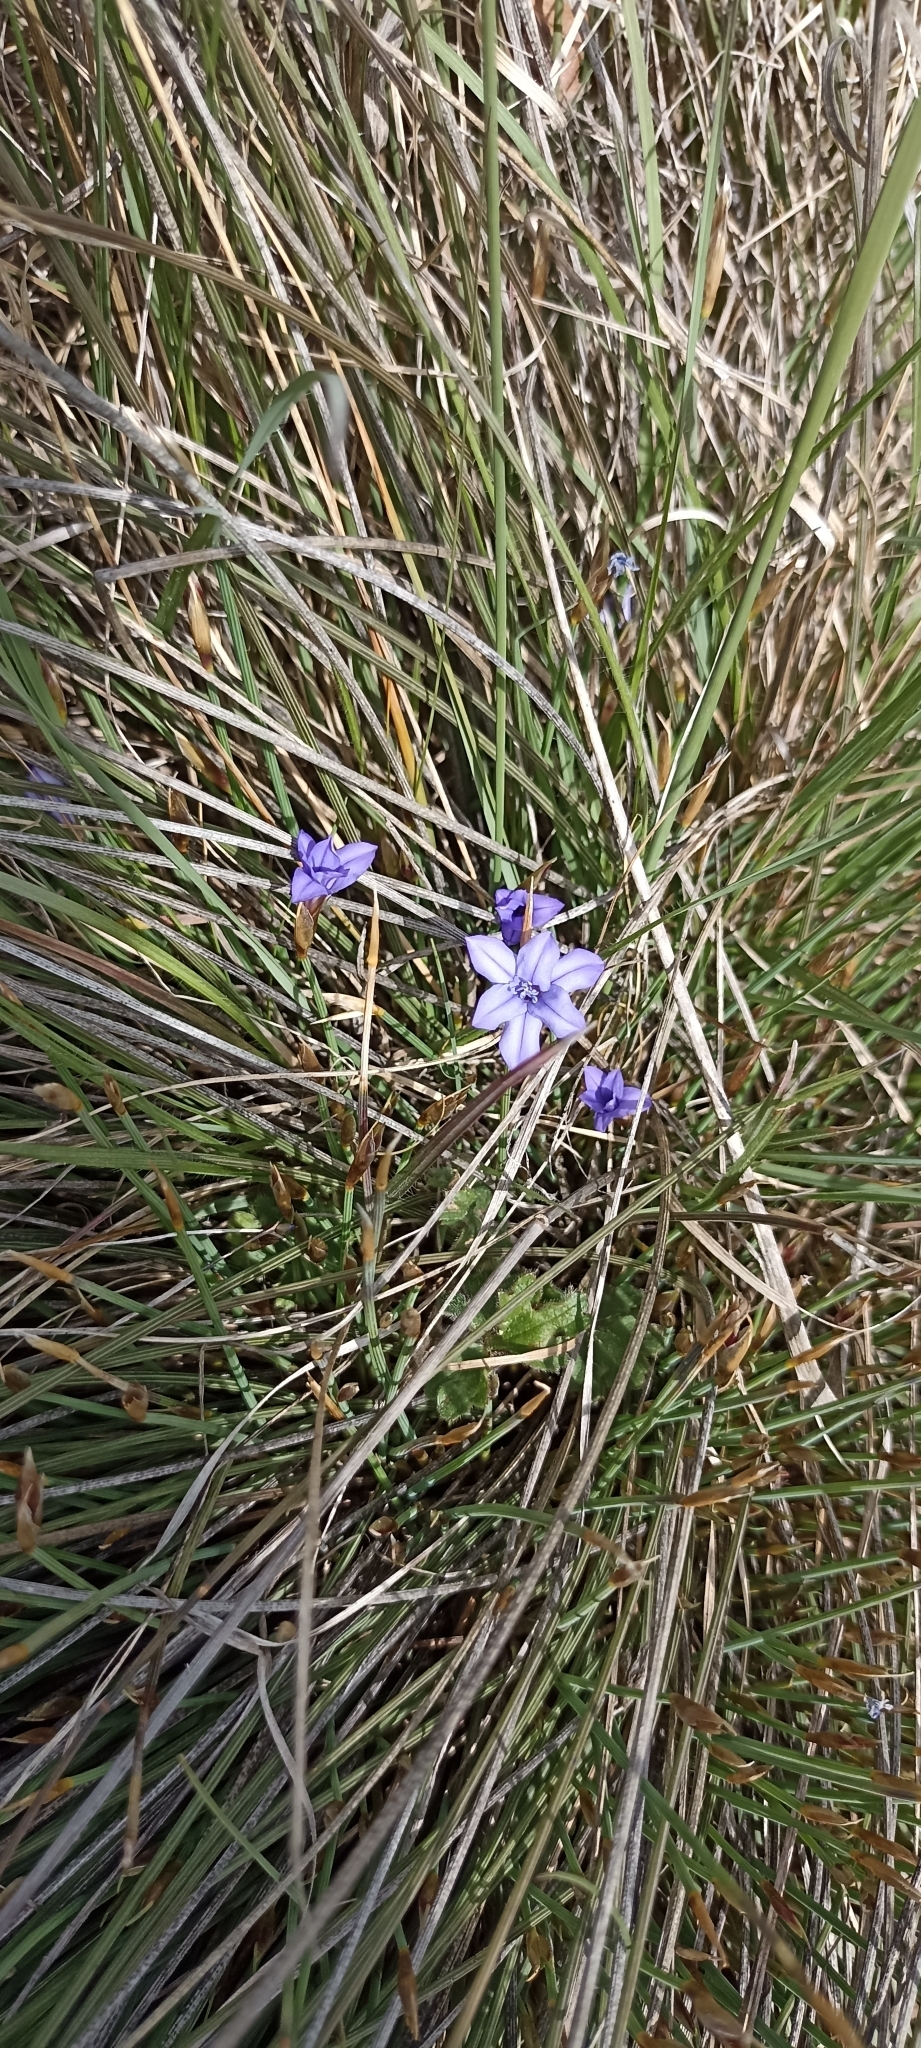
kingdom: Plantae
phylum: Tracheophyta
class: Liliopsida
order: Asparagales
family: Asparagaceae
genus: Aphyllanthes
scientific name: Aphyllanthes monspeliensis
